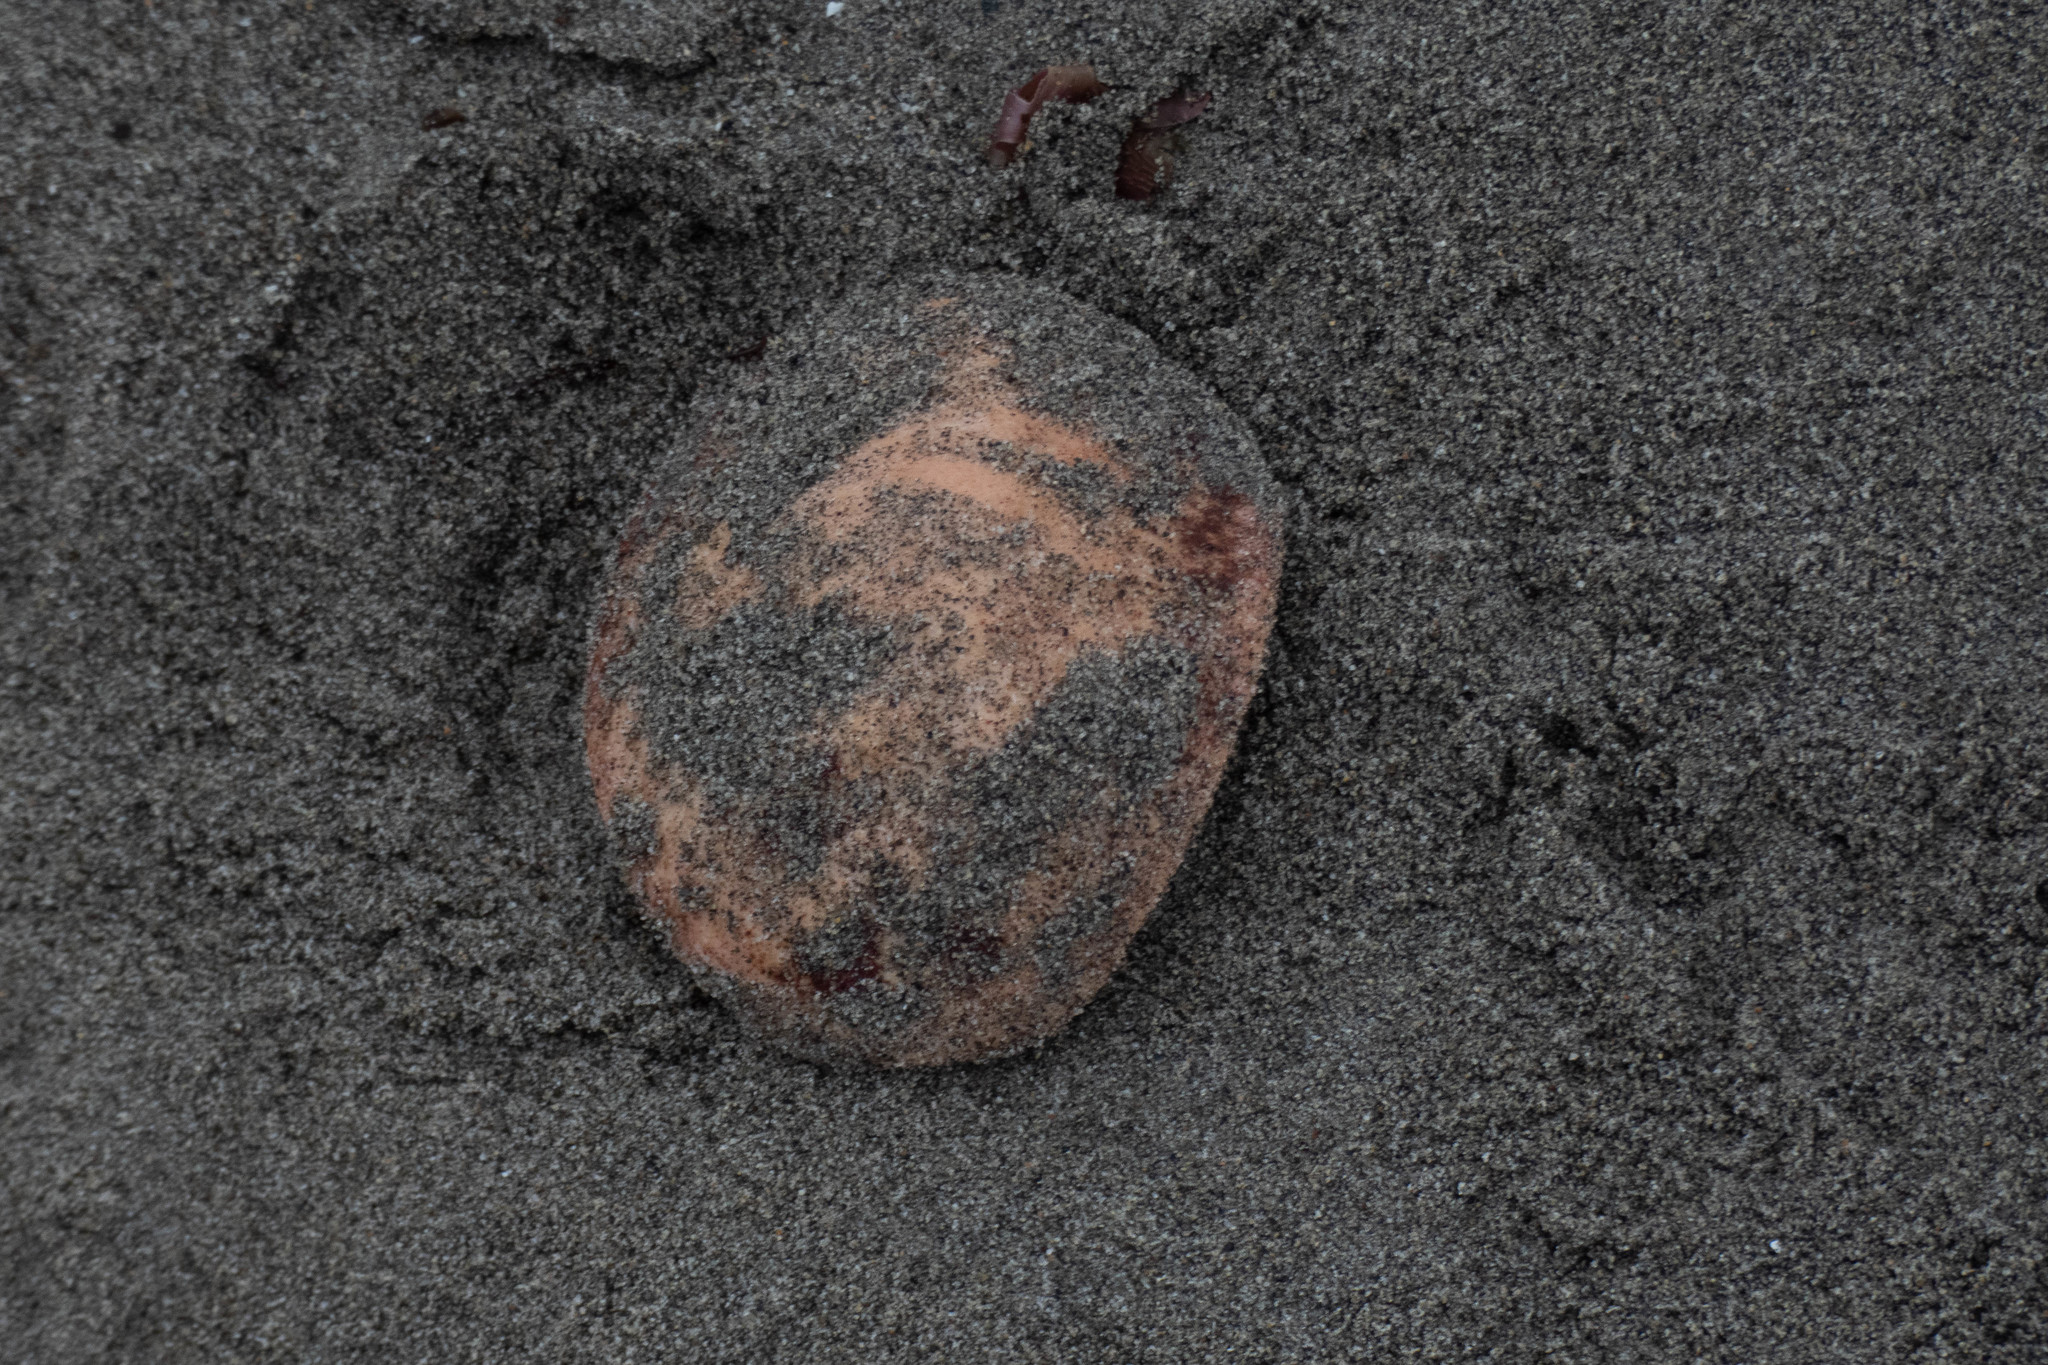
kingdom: Animalia
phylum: Mollusca
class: Polyplacophora
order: Chitonida
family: Acanthochitonidae
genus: Cryptochiton
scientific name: Cryptochiton stelleri
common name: Giant pacific chiton
